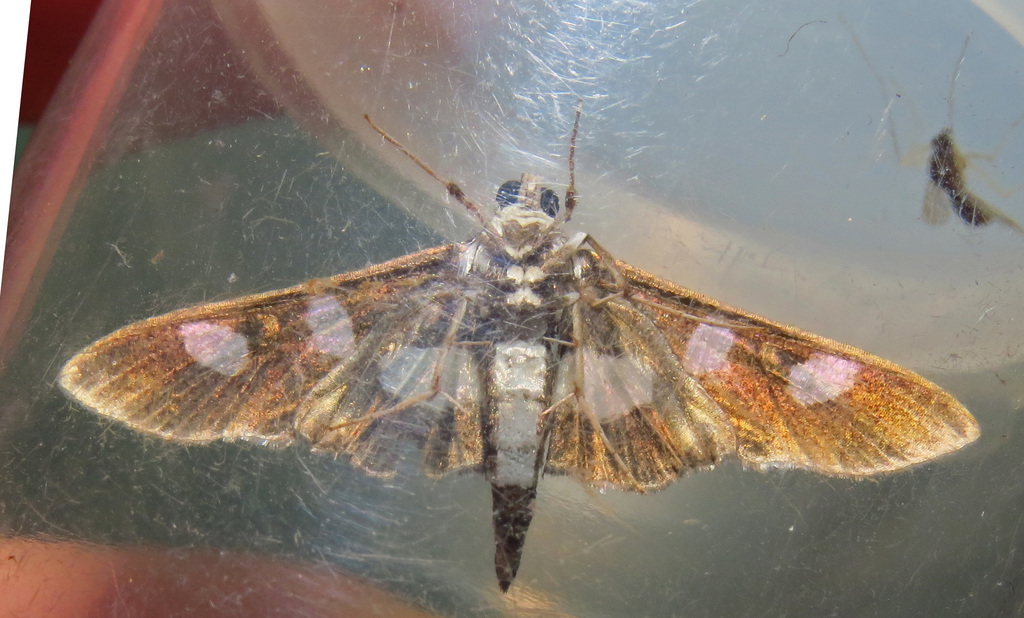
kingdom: Animalia
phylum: Arthropoda
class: Insecta
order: Lepidoptera
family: Crambidae
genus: Desmia
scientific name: Desmia funeralis
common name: Grape leaf folder moth
